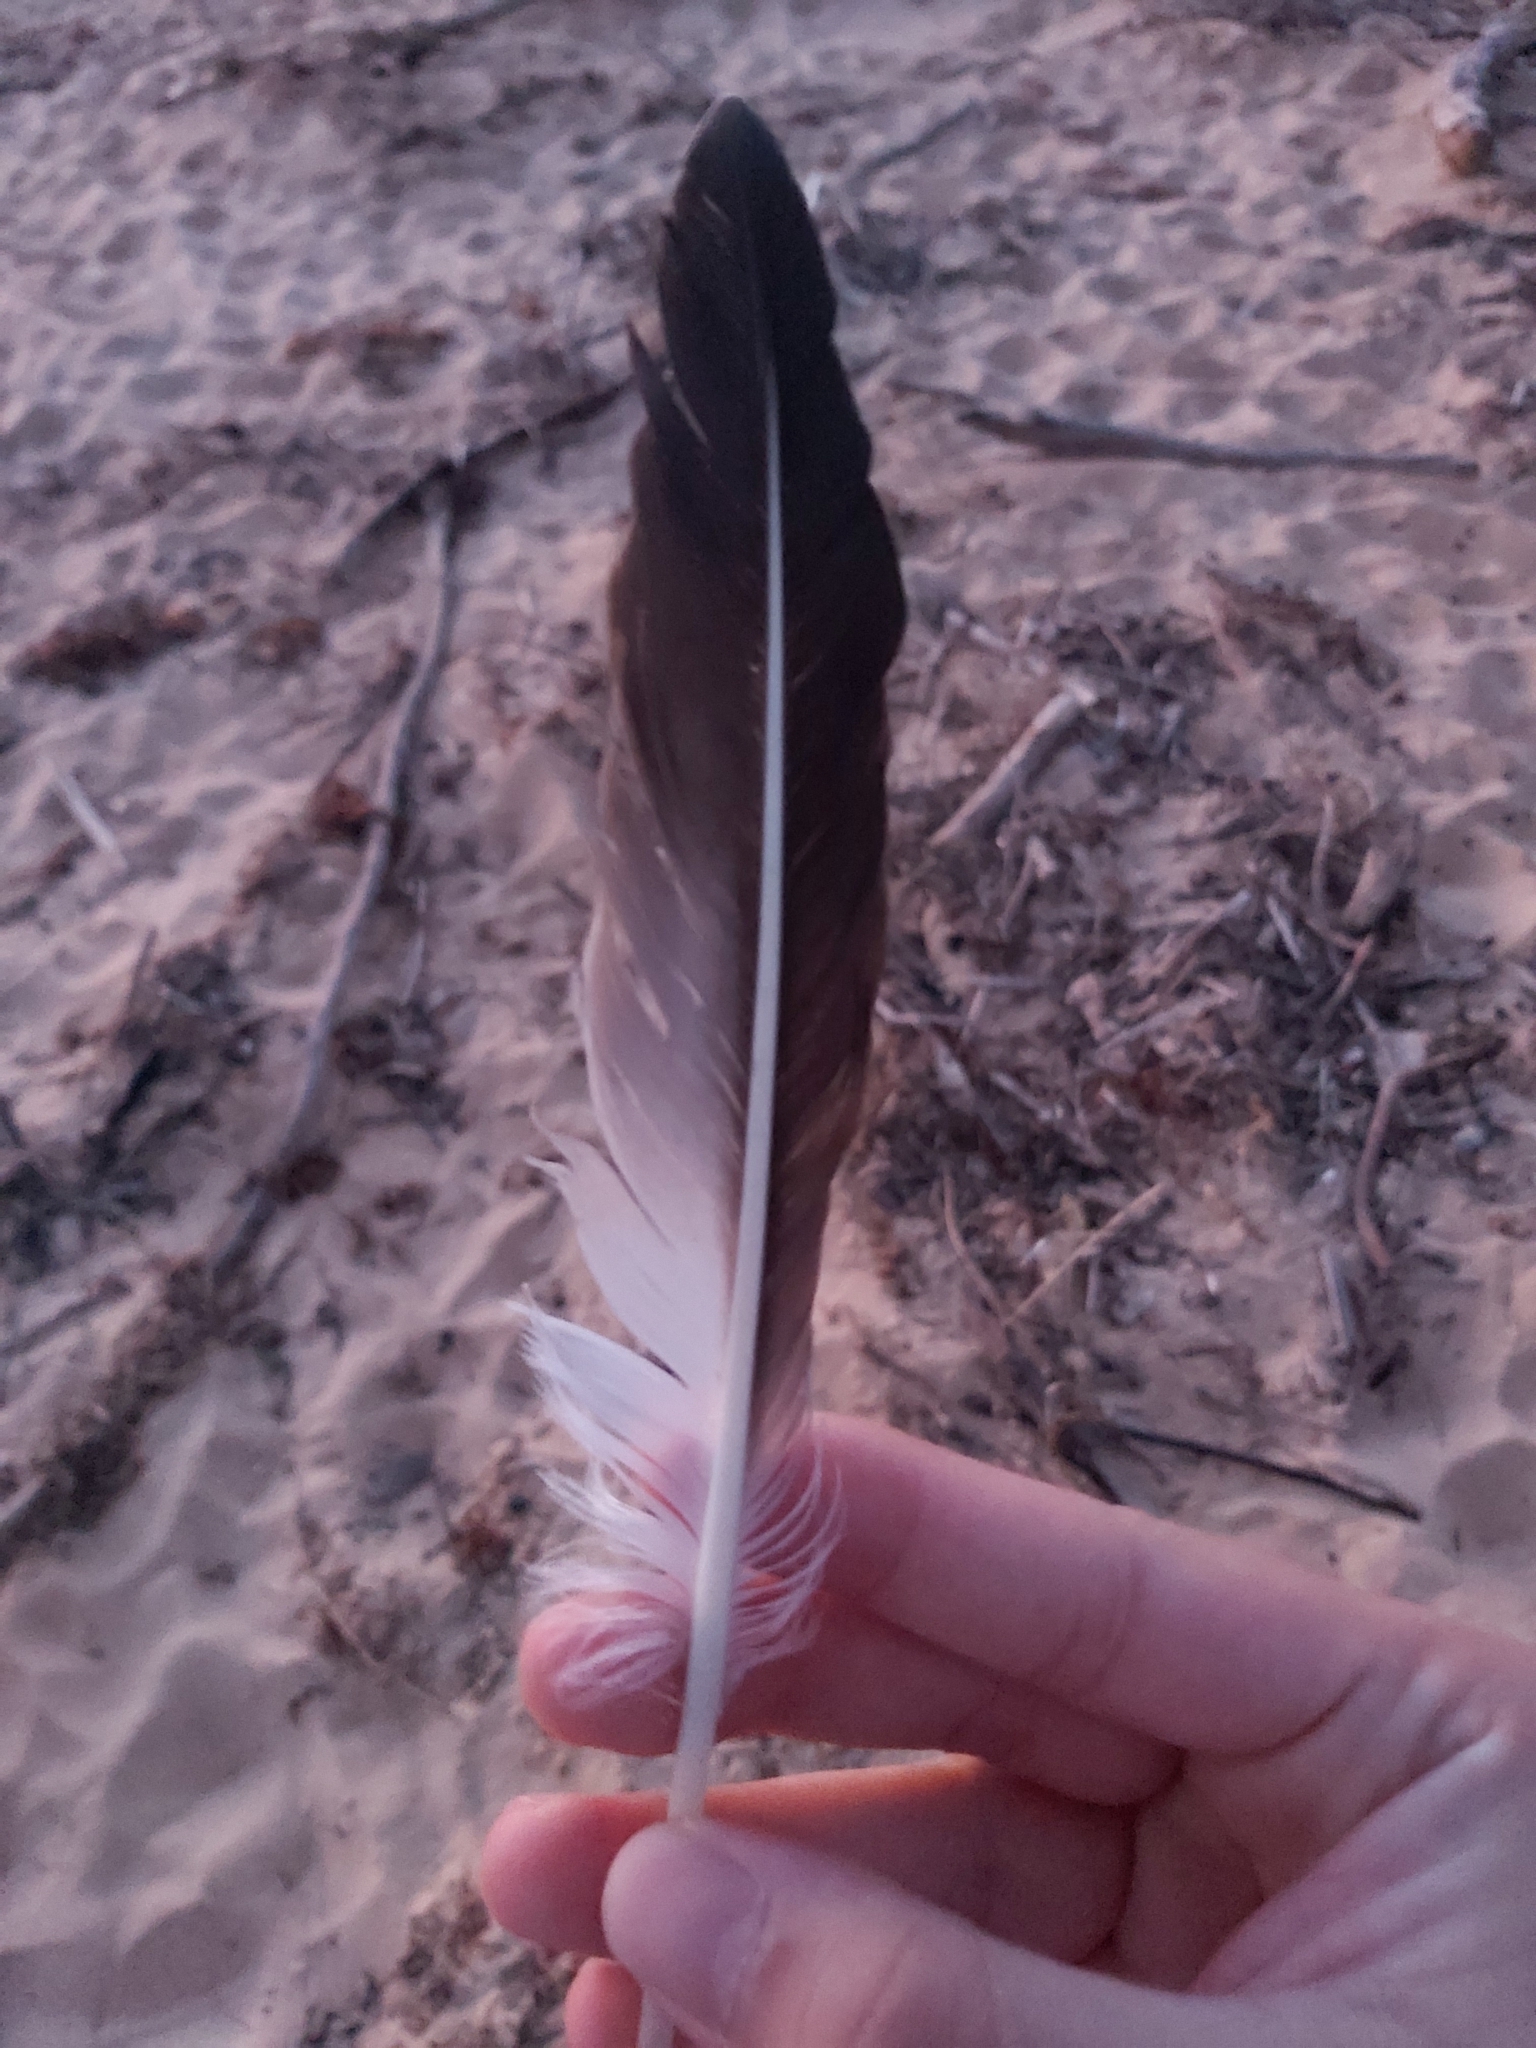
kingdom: Animalia
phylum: Chordata
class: Aves
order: Suliformes
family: Sulidae
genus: Morus
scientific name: Morus serrator
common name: Australasian gannet
